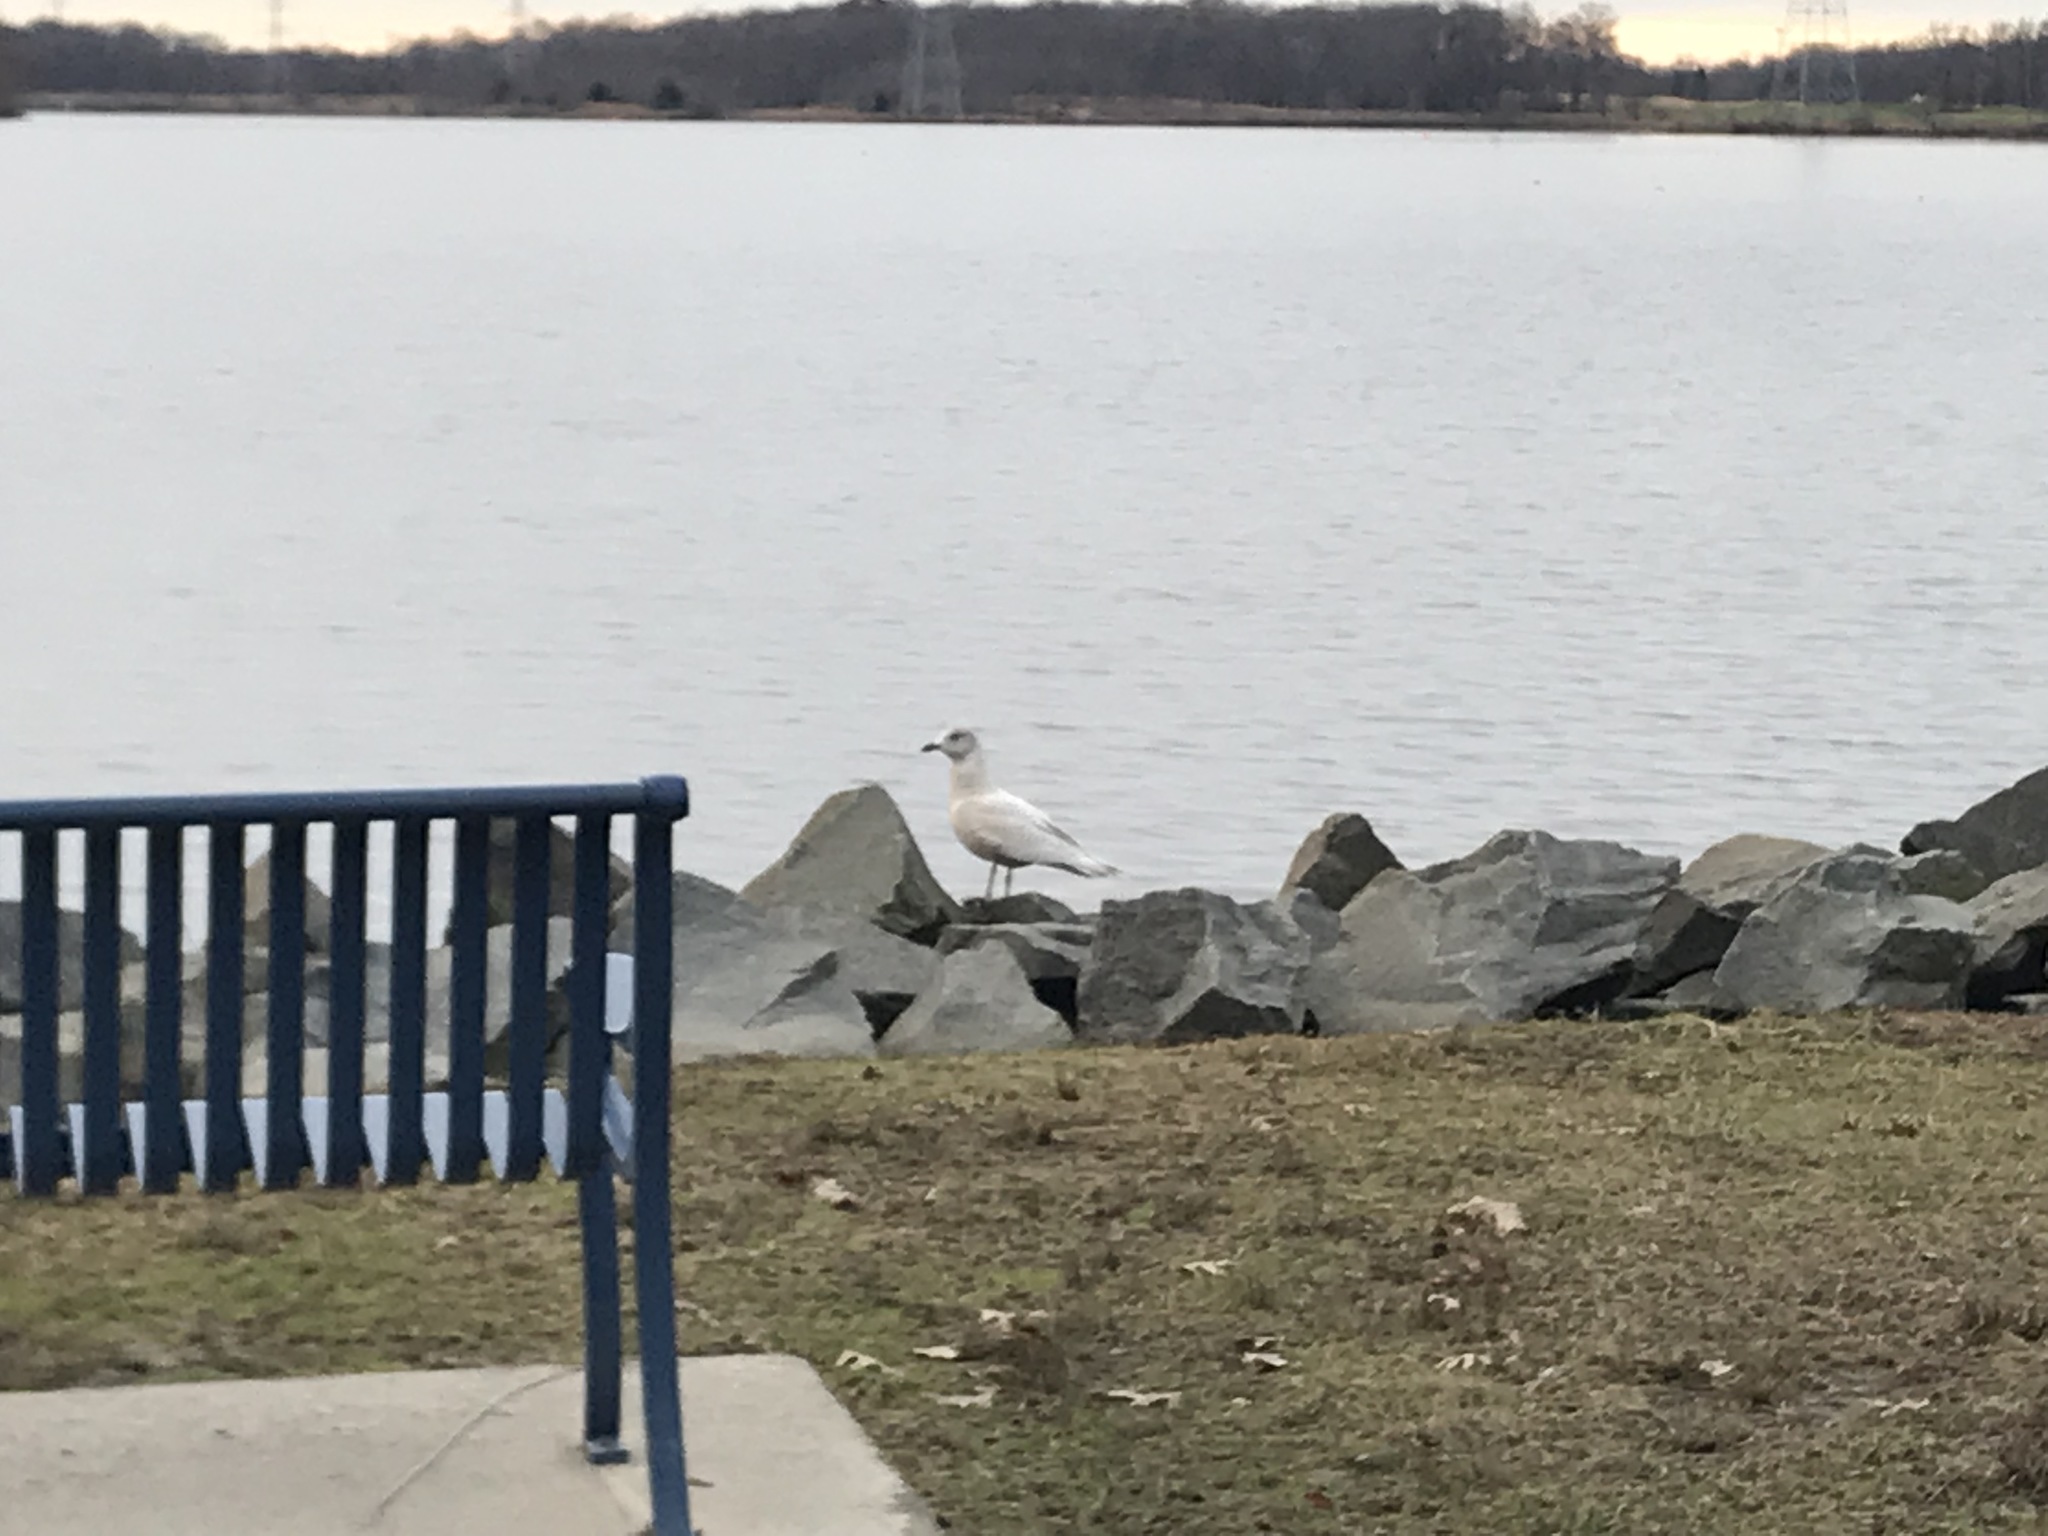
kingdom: Animalia
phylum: Chordata
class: Aves
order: Charadriiformes
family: Laridae
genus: Larus
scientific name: Larus glaucoides
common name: Iceland gull
